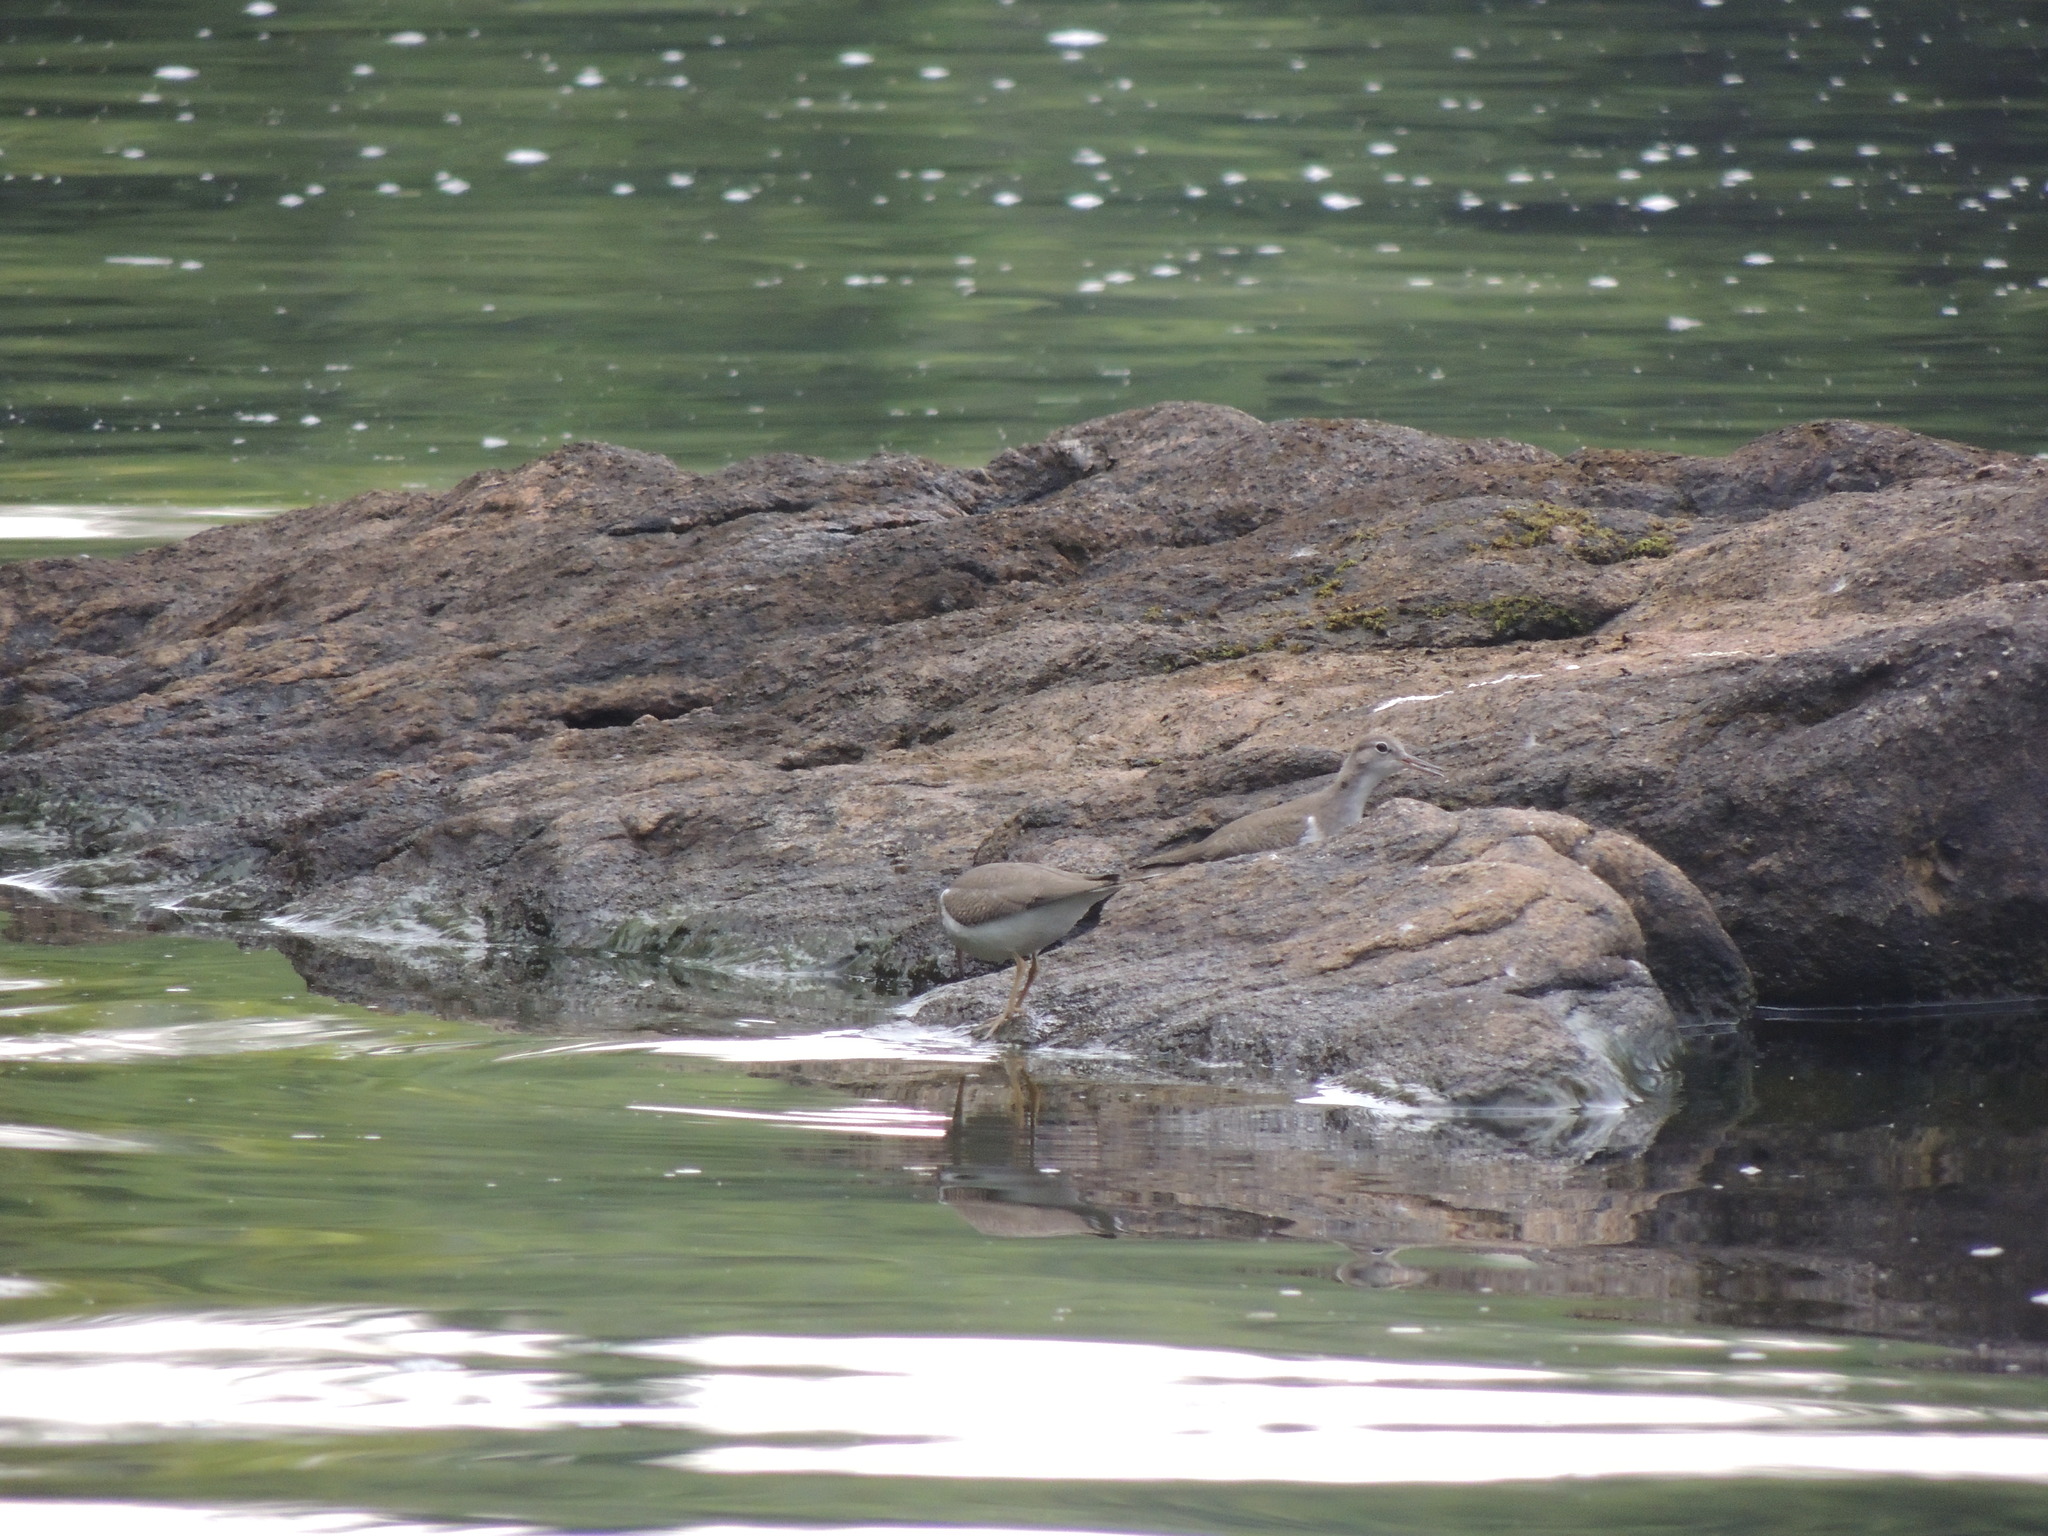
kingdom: Animalia
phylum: Chordata
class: Aves
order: Charadriiformes
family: Scolopacidae
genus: Actitis
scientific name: Actitis macularius
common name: Spotted sandpiper
